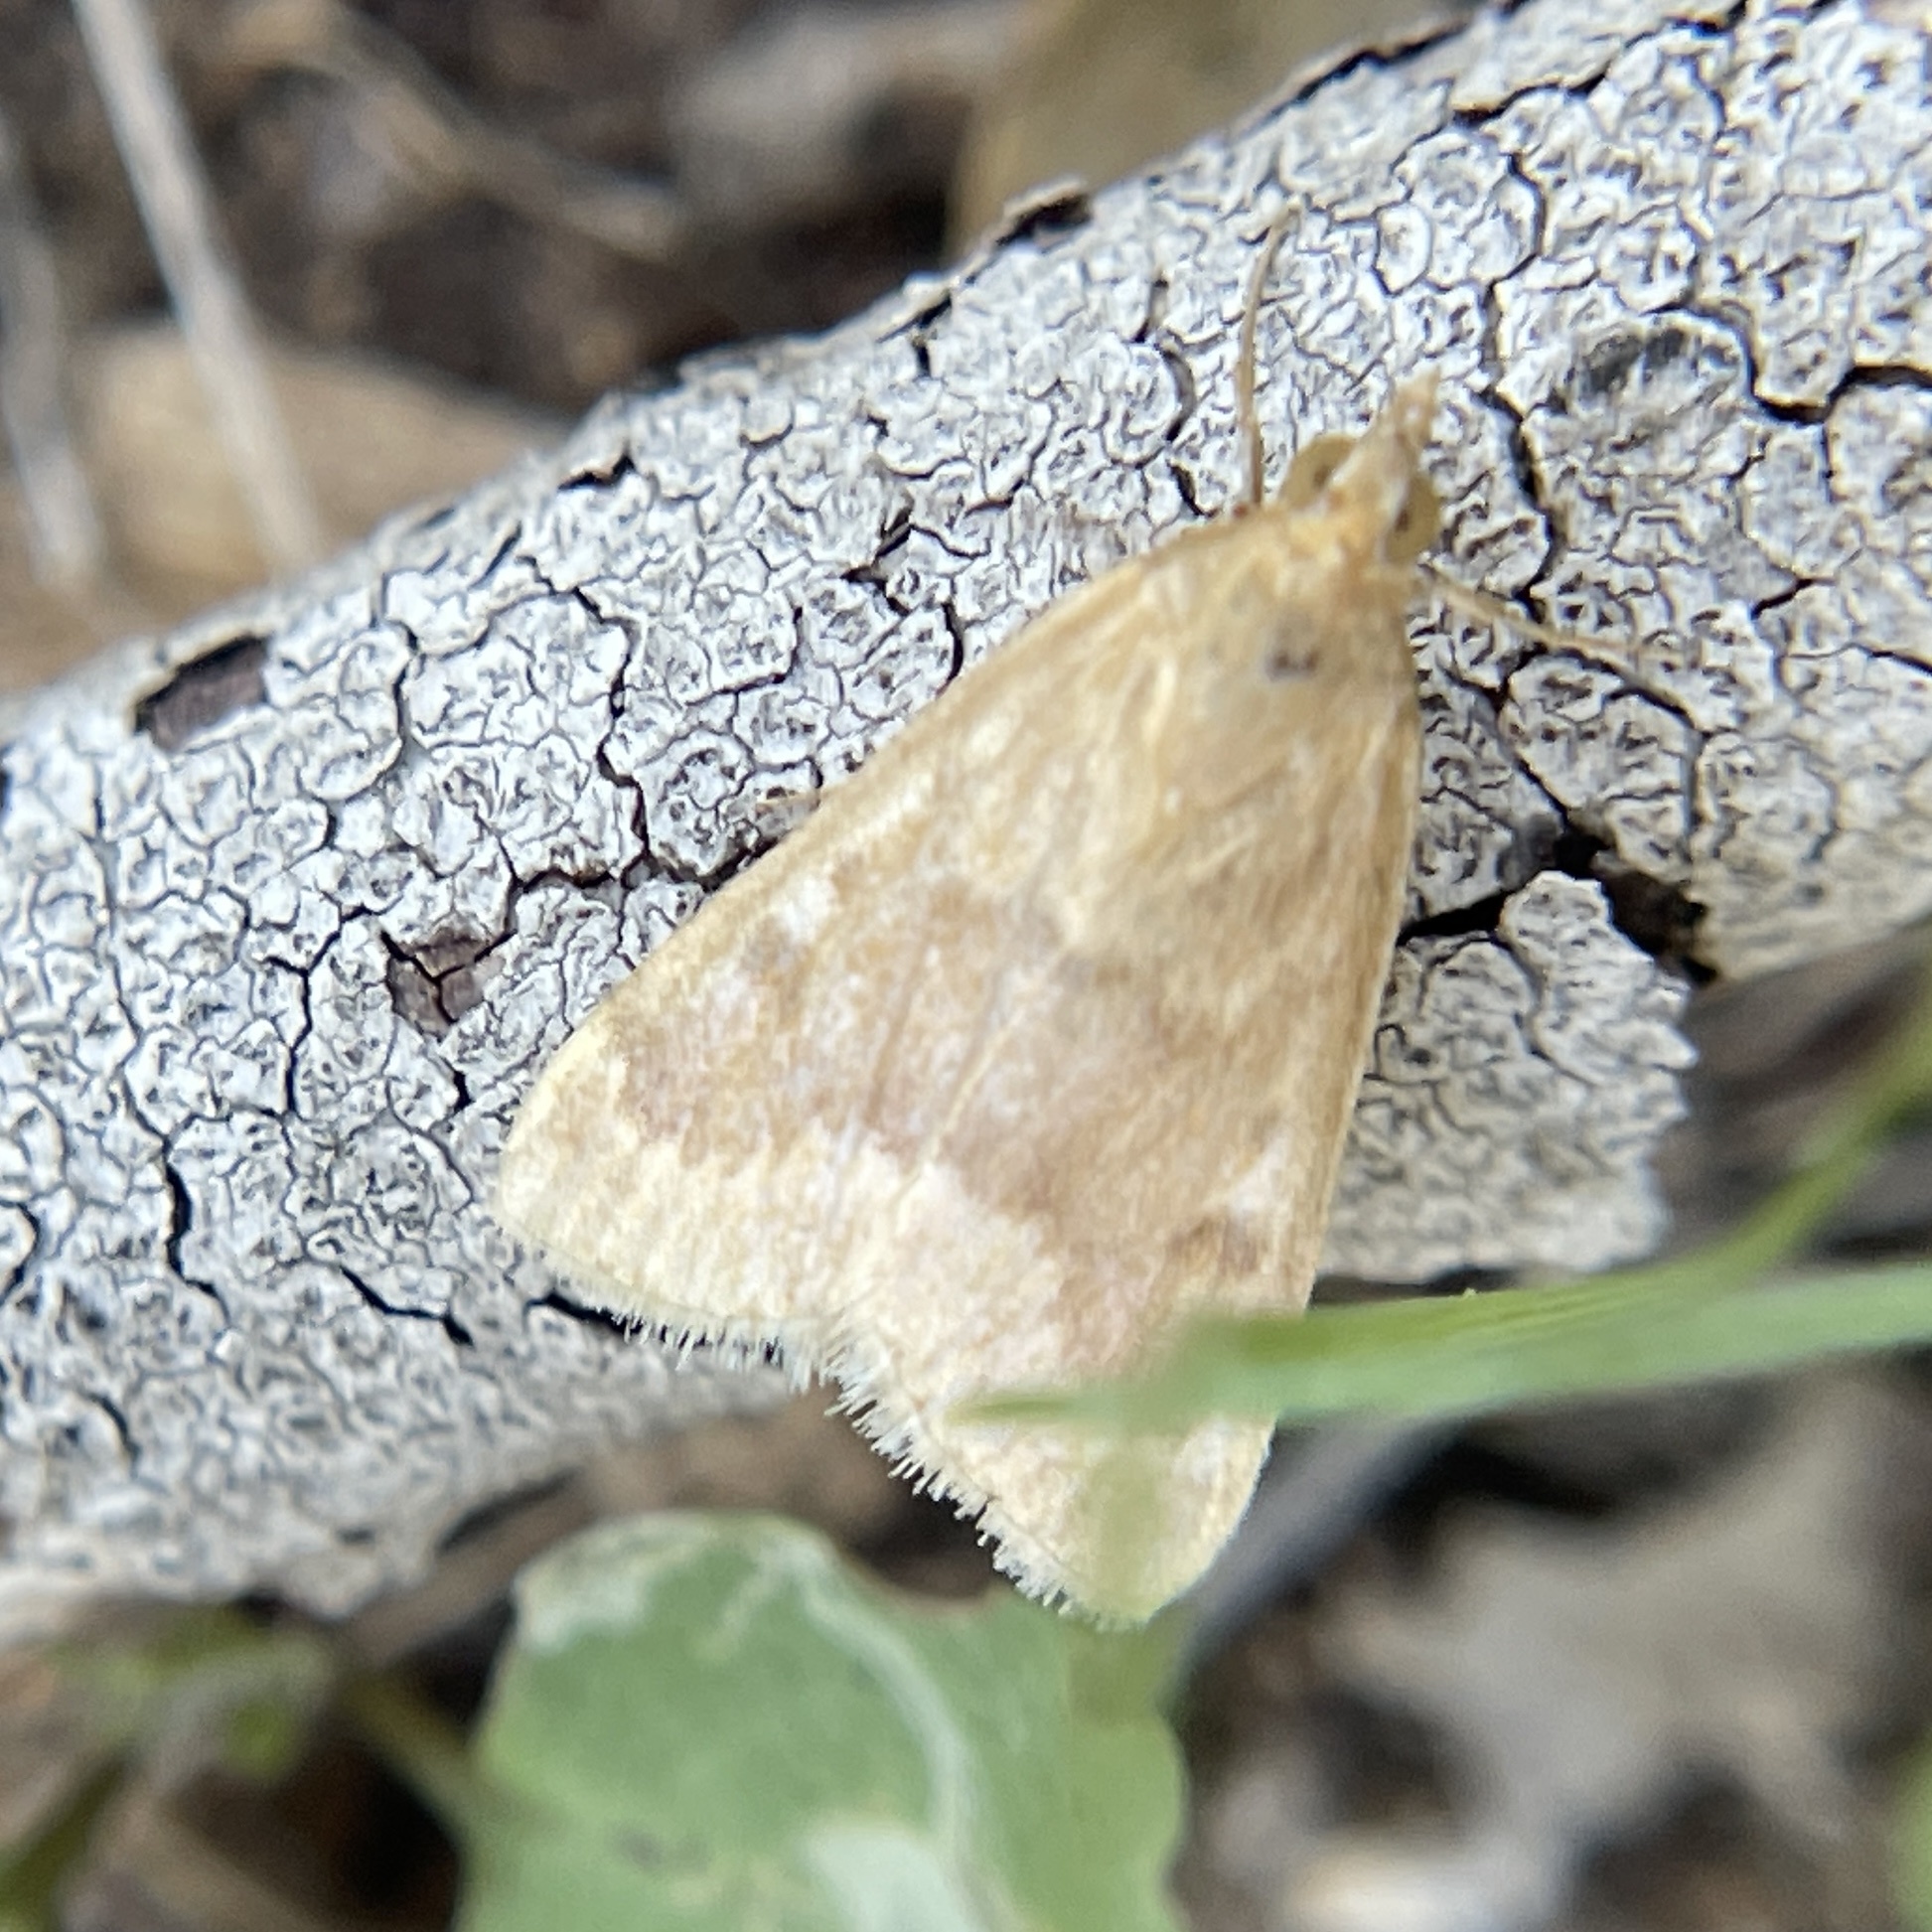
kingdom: Animalia
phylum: Arthropoda
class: Insecta
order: Lepidoptera
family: Crambidae
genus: Achyra
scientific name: Achyra rantalis
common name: Garden webworm
